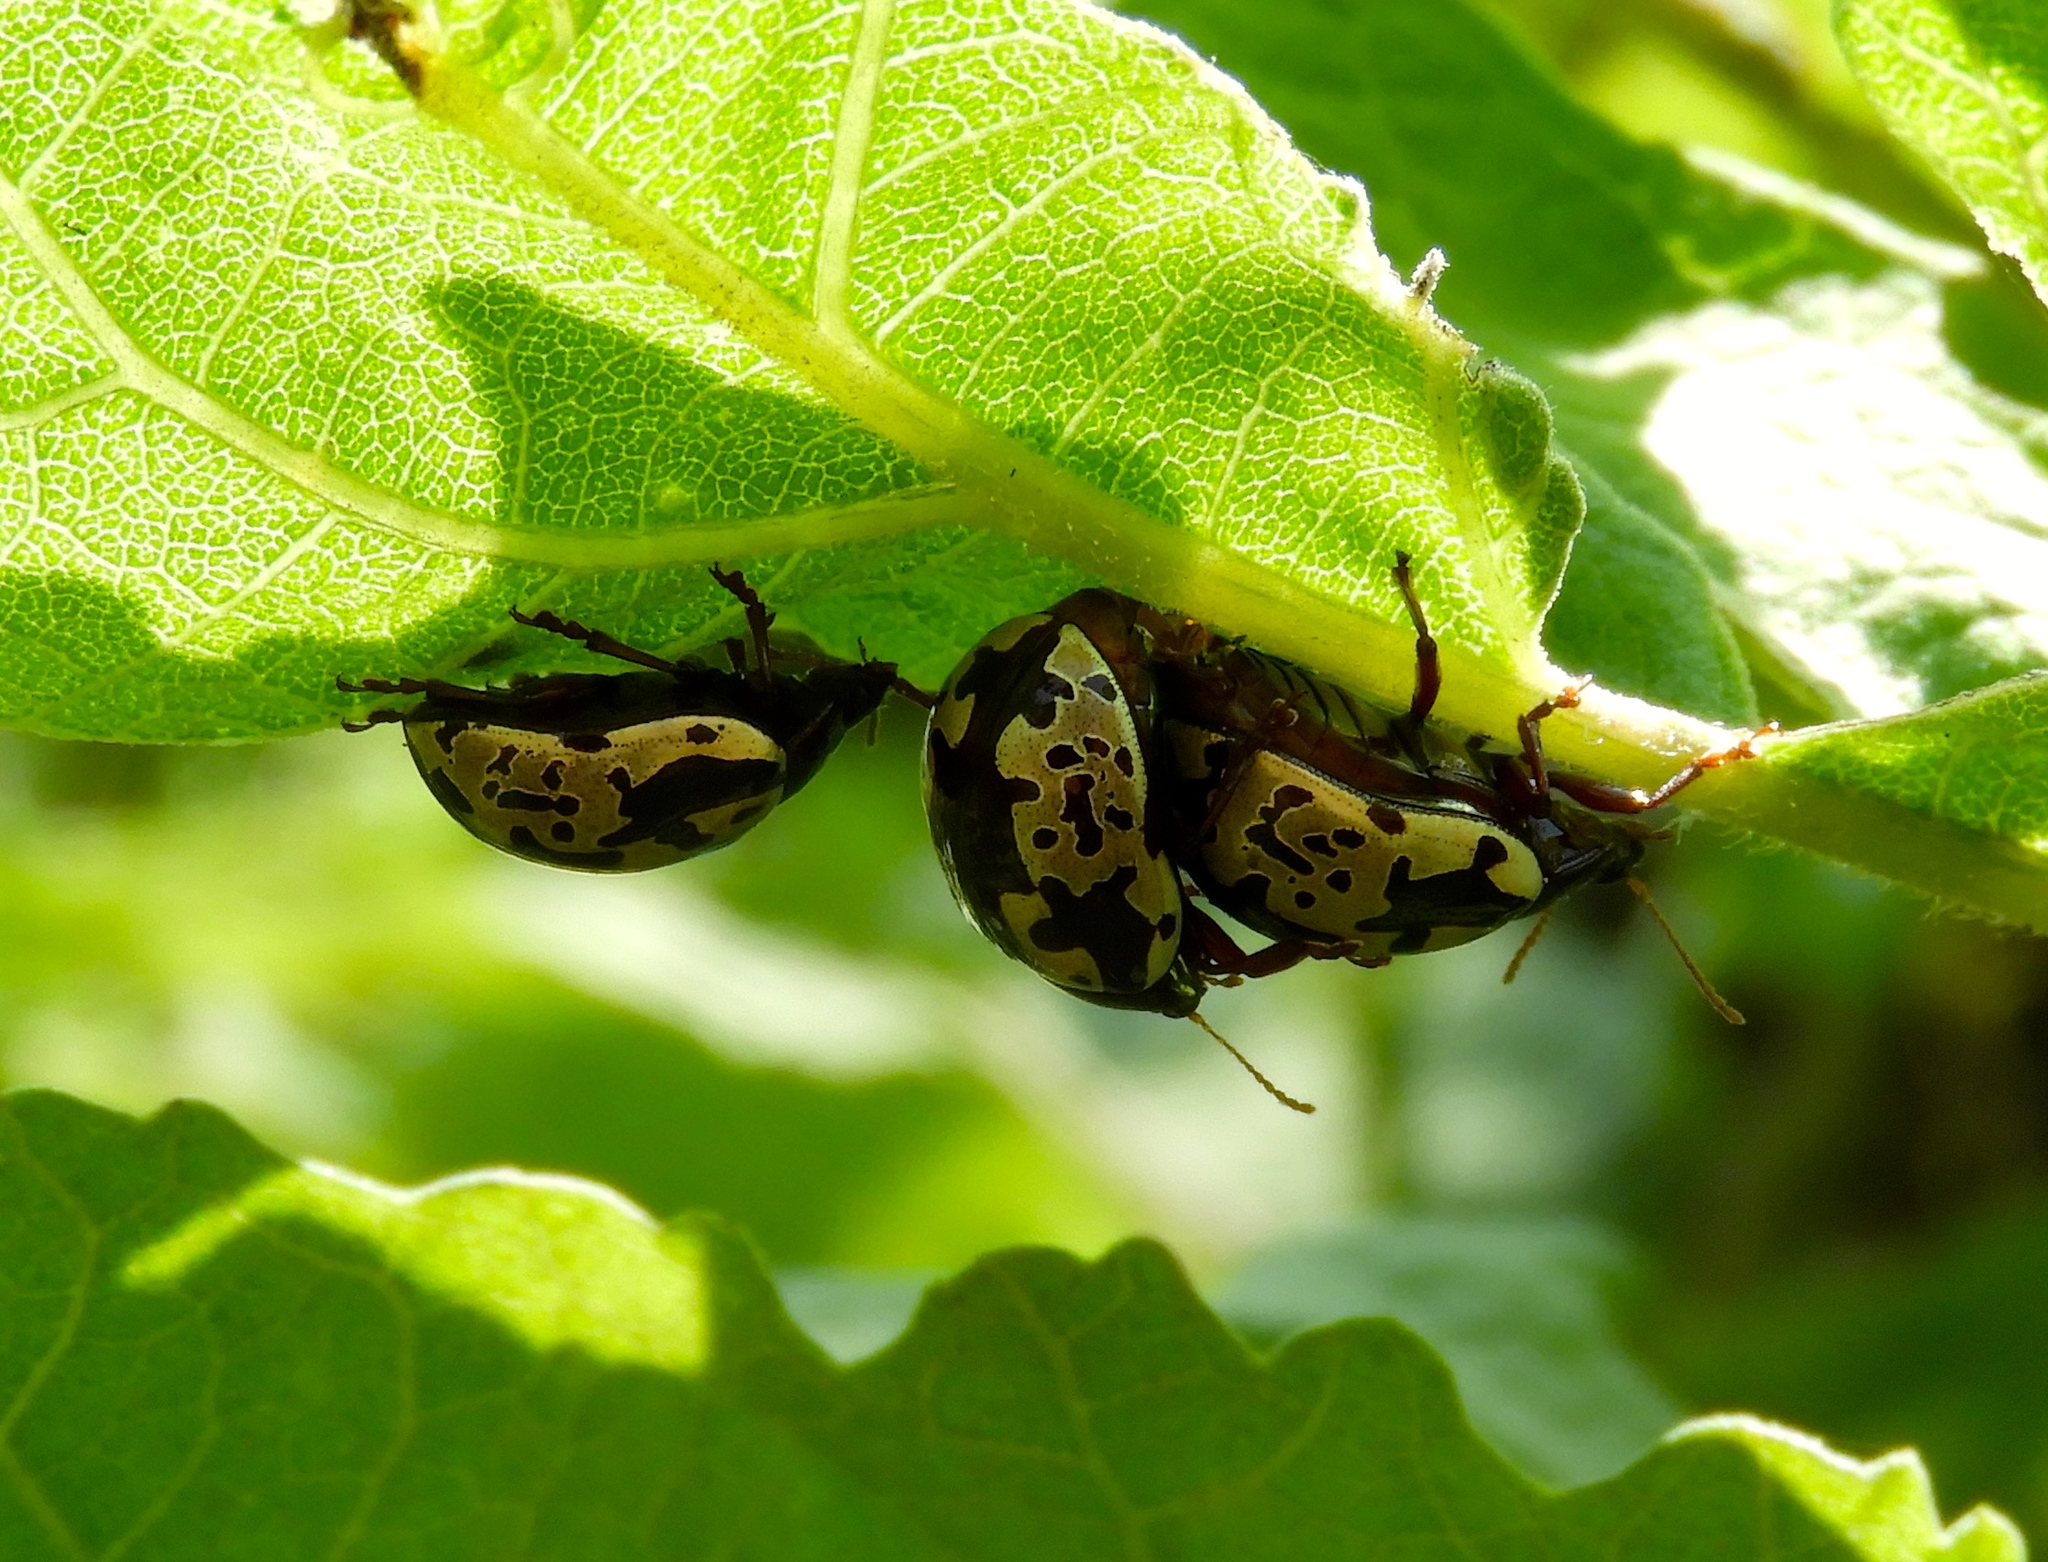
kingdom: Animalia
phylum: Arthropoda
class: Insecta
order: Coleoptera
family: Chrysomelidae
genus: Calligrapha
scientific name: Calligrapha intermedia
